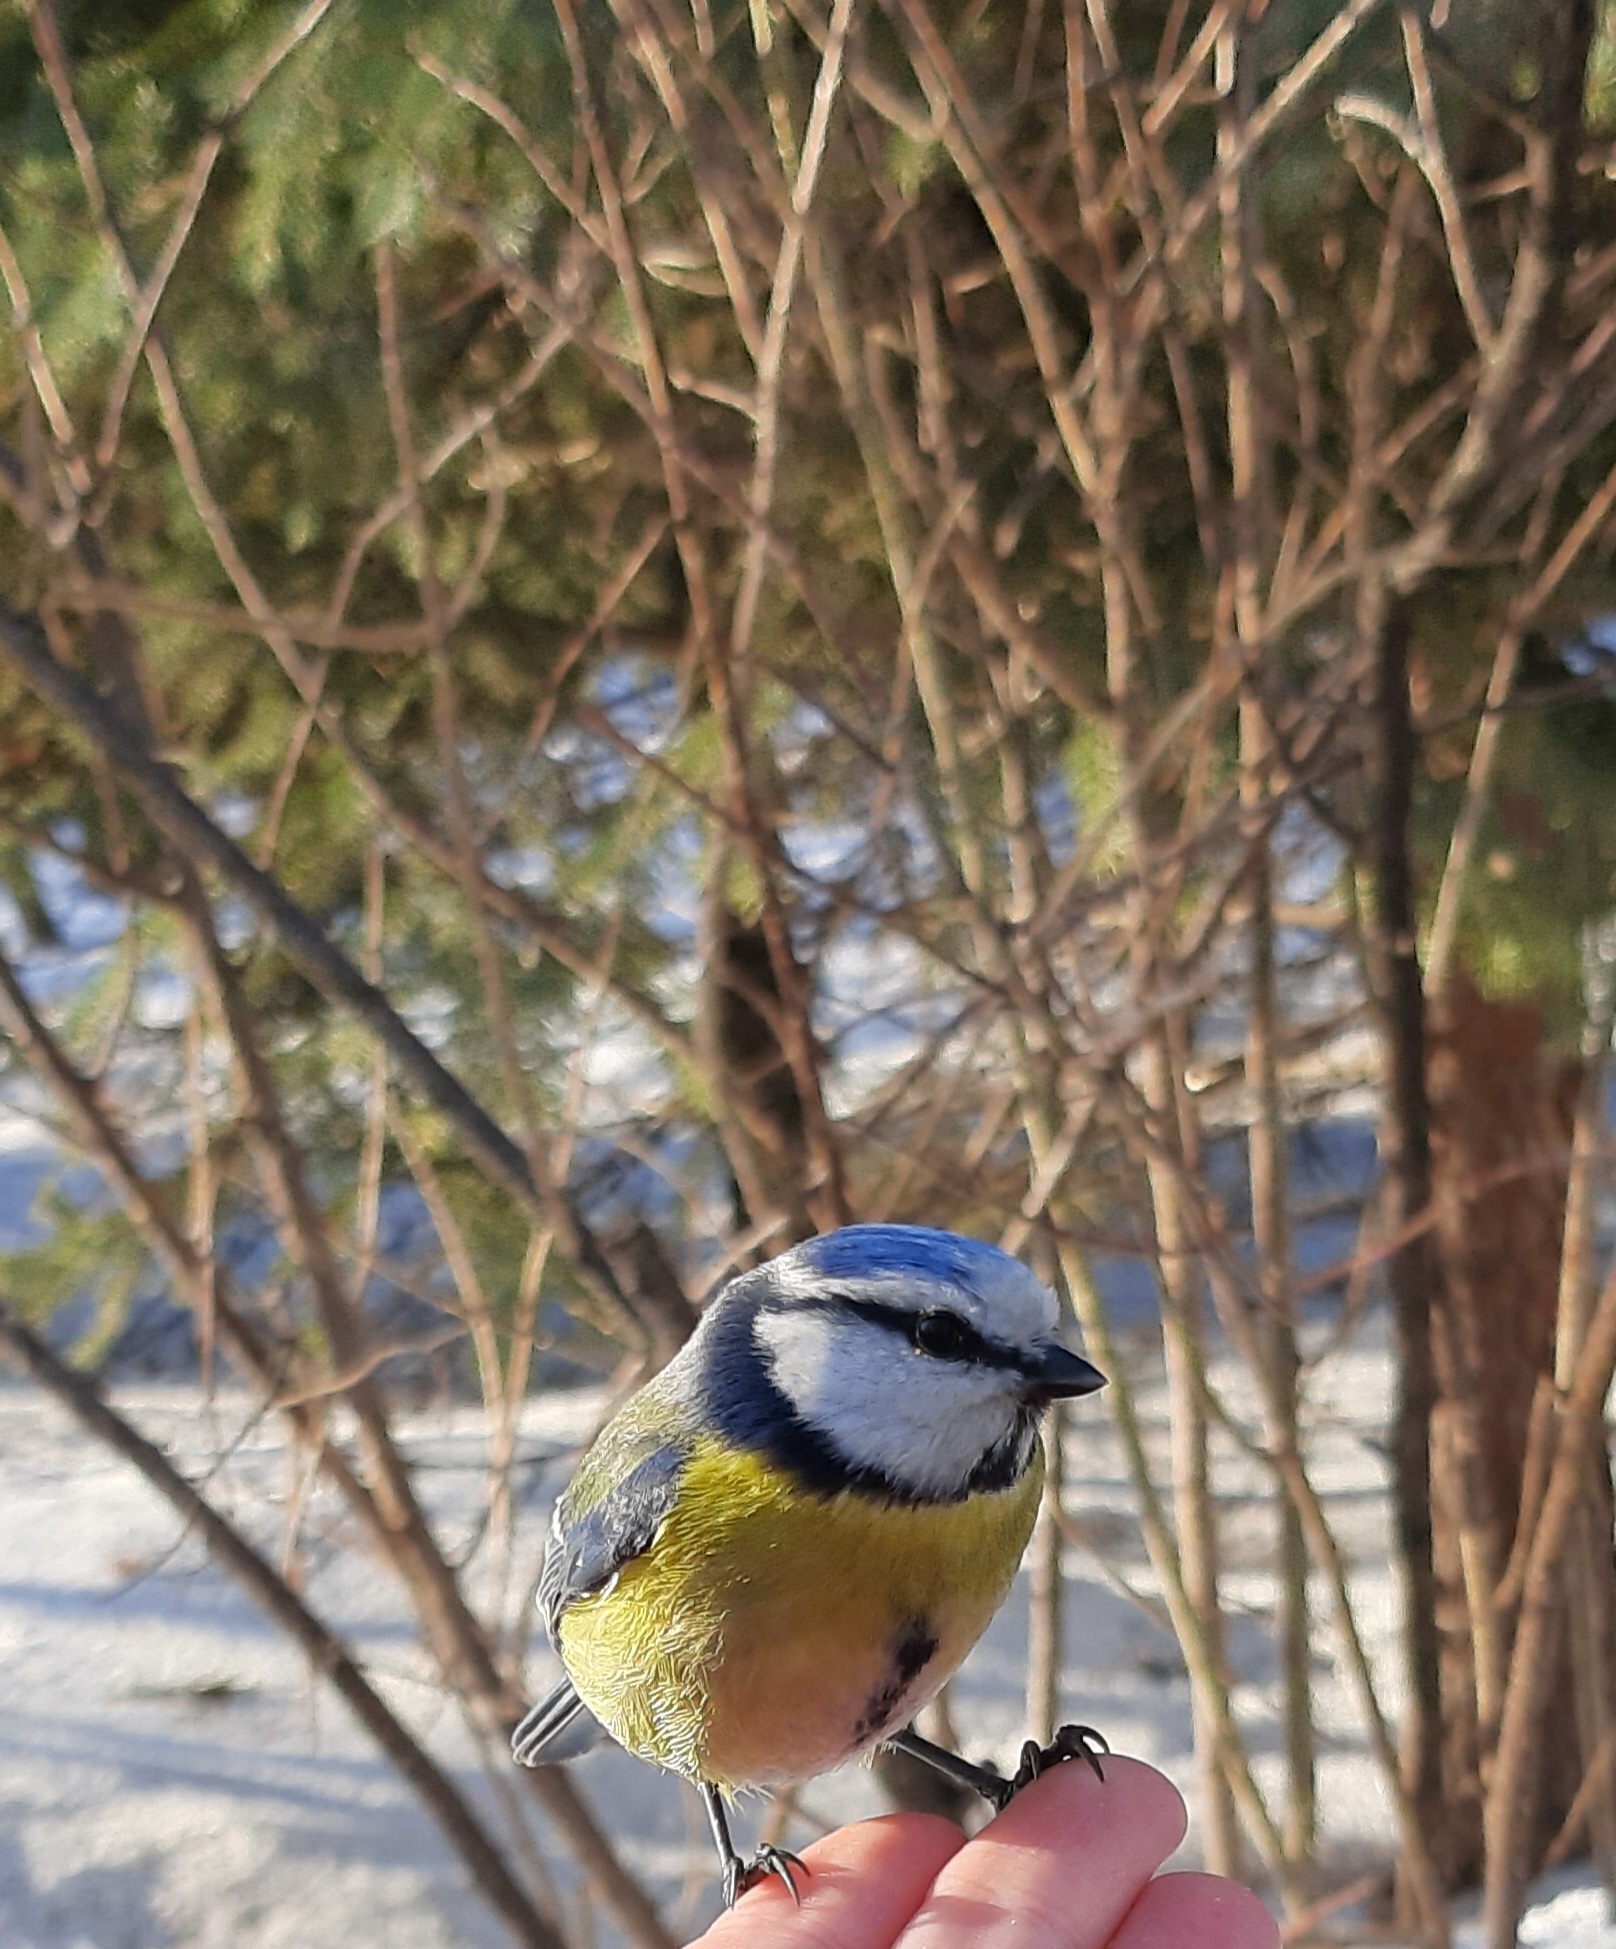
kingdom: Animalia
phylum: Chordata
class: Aves
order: Passeriformes
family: Paridae
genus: Cyanistes
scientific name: Cyanistes caeruleus
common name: Eurasian blue tit
